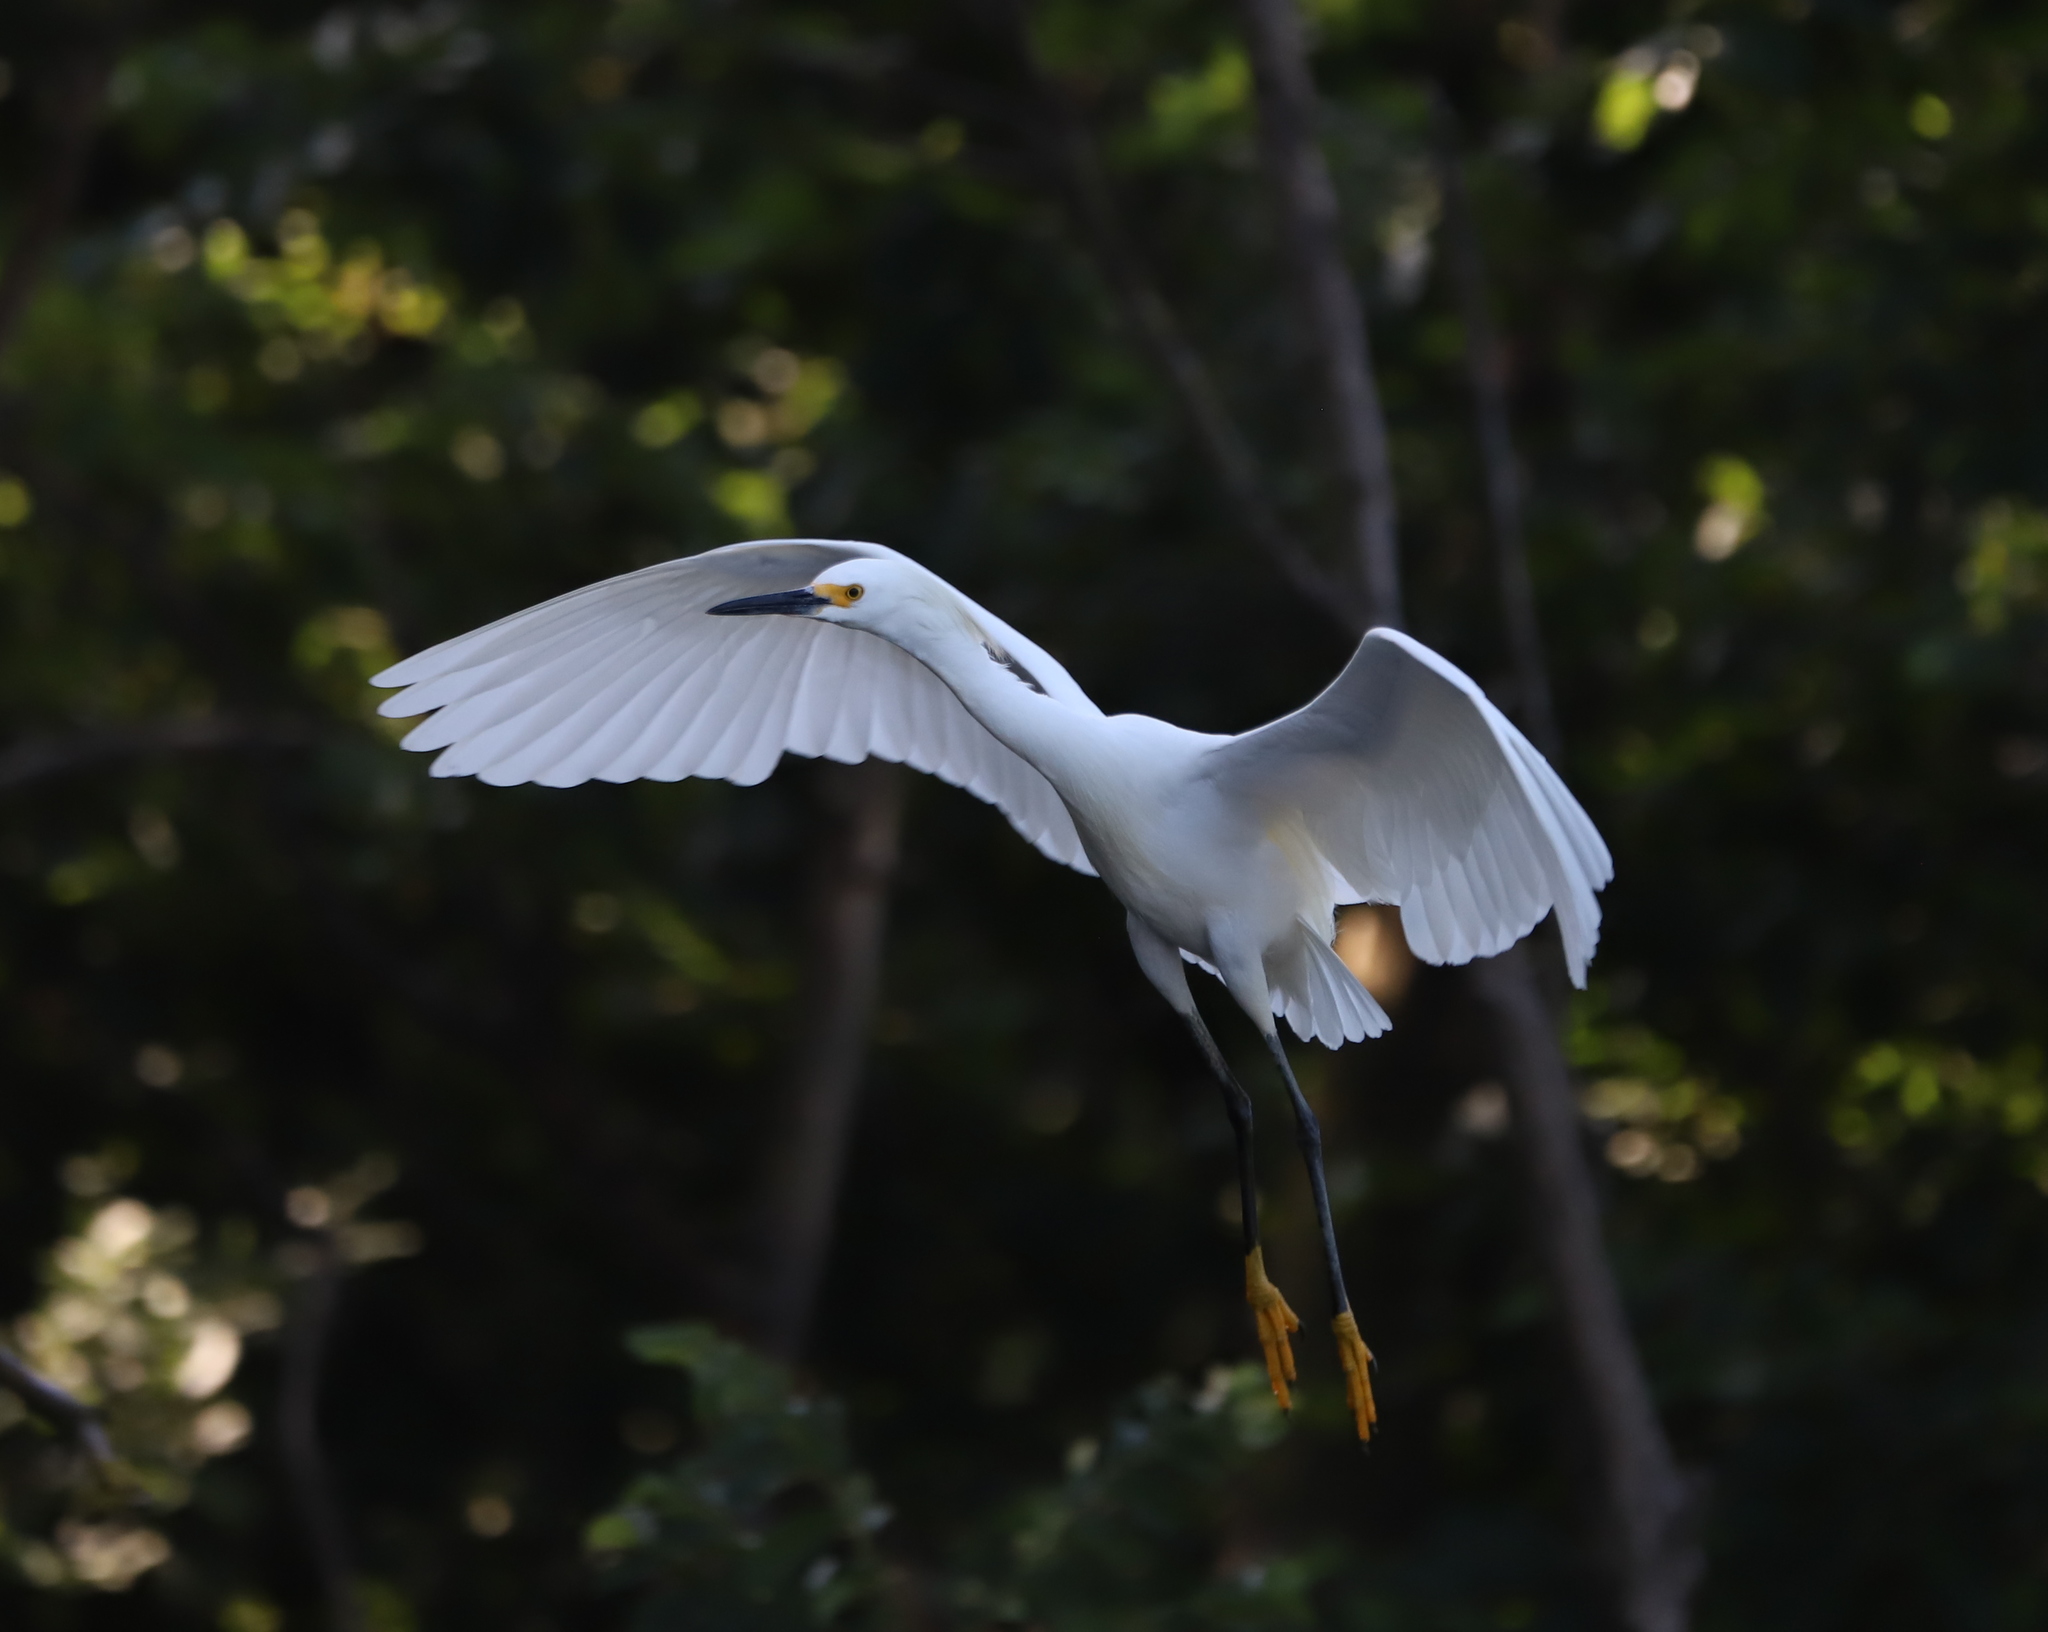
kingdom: Animalia
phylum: Chordata
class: Aves
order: Pelecaniformes
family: Ardeidae
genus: Egretta
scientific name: Egretta thula
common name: Snowy egret
